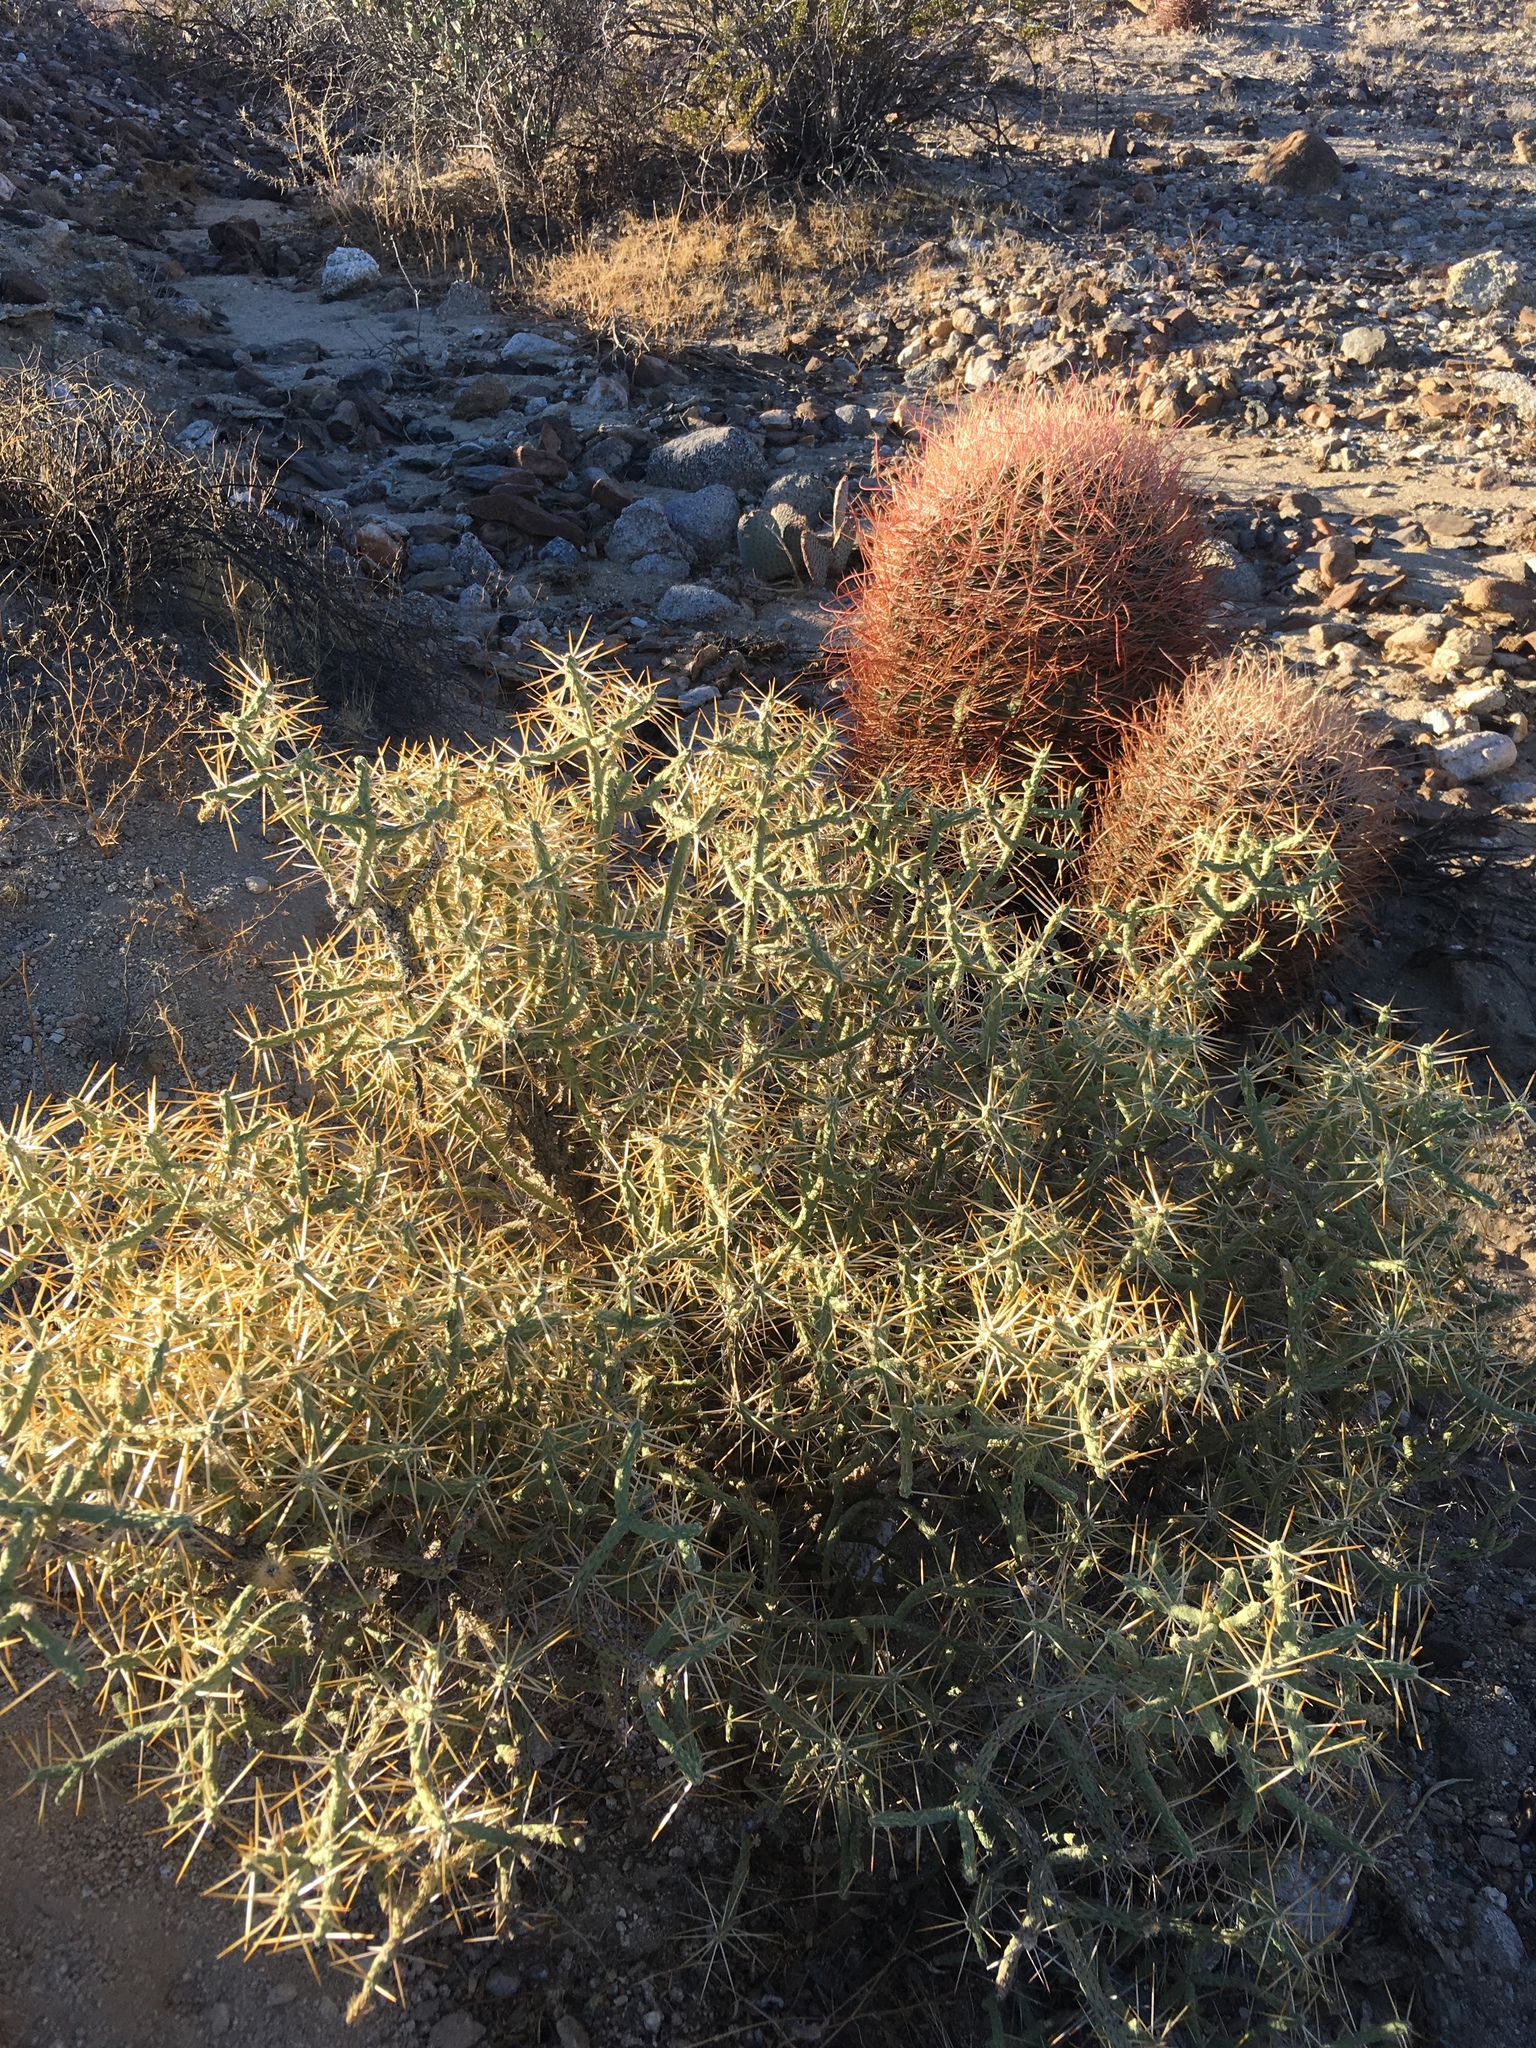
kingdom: Plantae
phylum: Tracheophyta
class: Magnoliopsida
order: Caryophyllales
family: Cactaceae
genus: Cylindropuntia
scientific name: Cylindropuntia ramosissima
